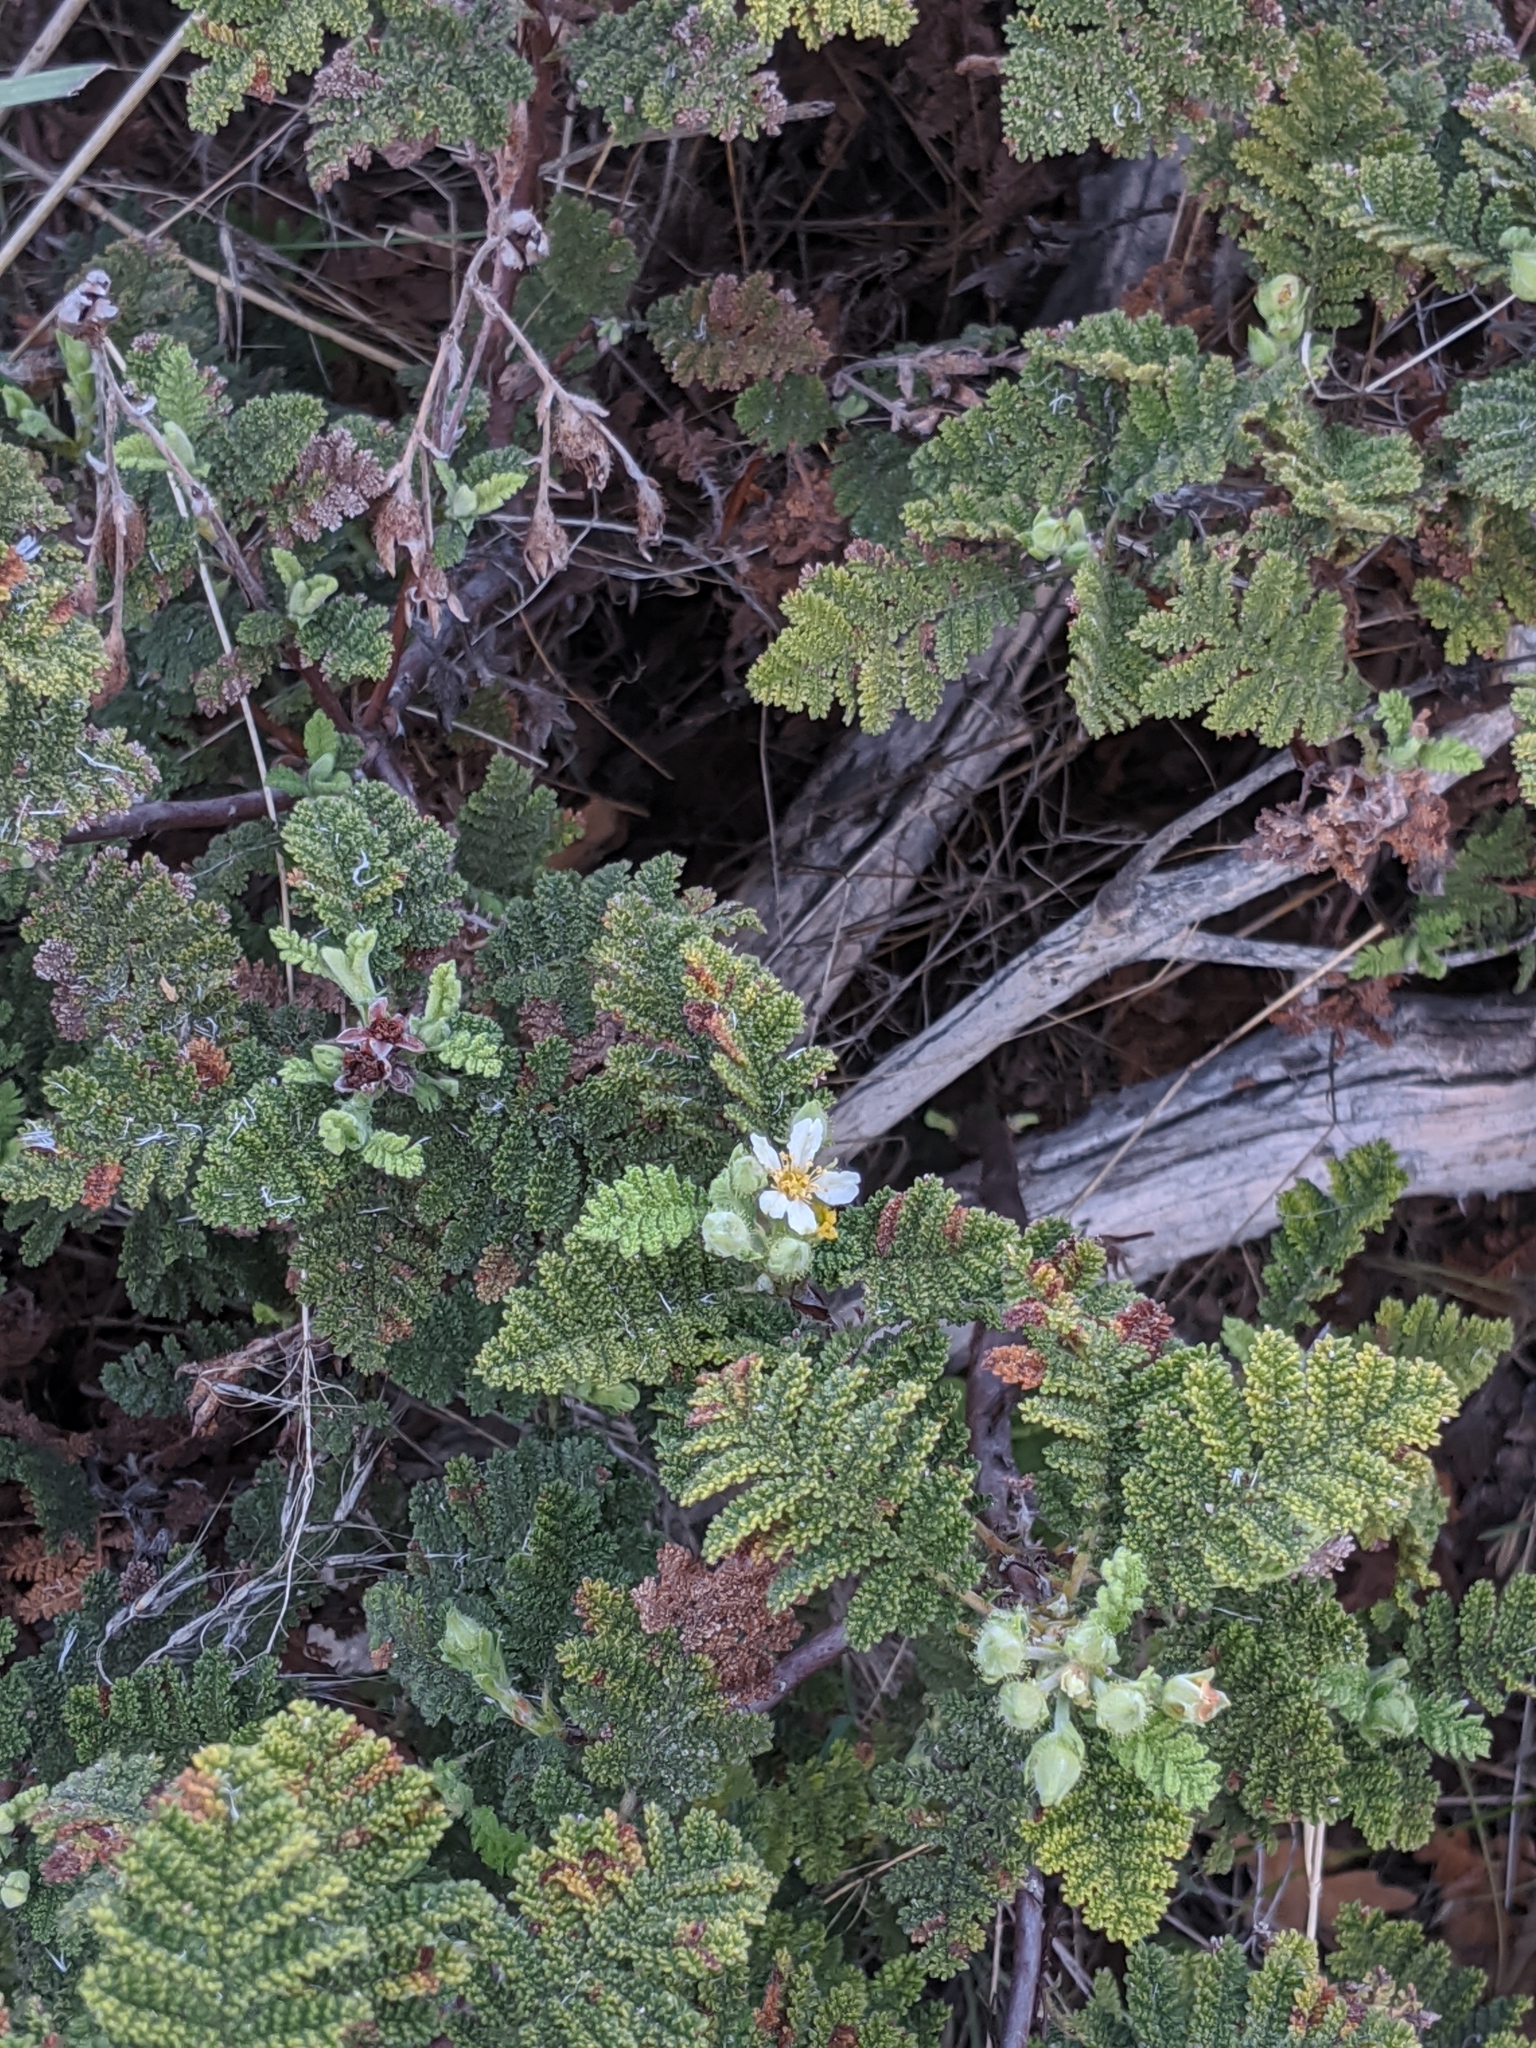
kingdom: Plantae
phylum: Tracheophyta
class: Magnoliopsida
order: Rosales
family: Rosaceae
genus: Chamaebatia
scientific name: Chamaebatia foliolosa
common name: Mountain misery
